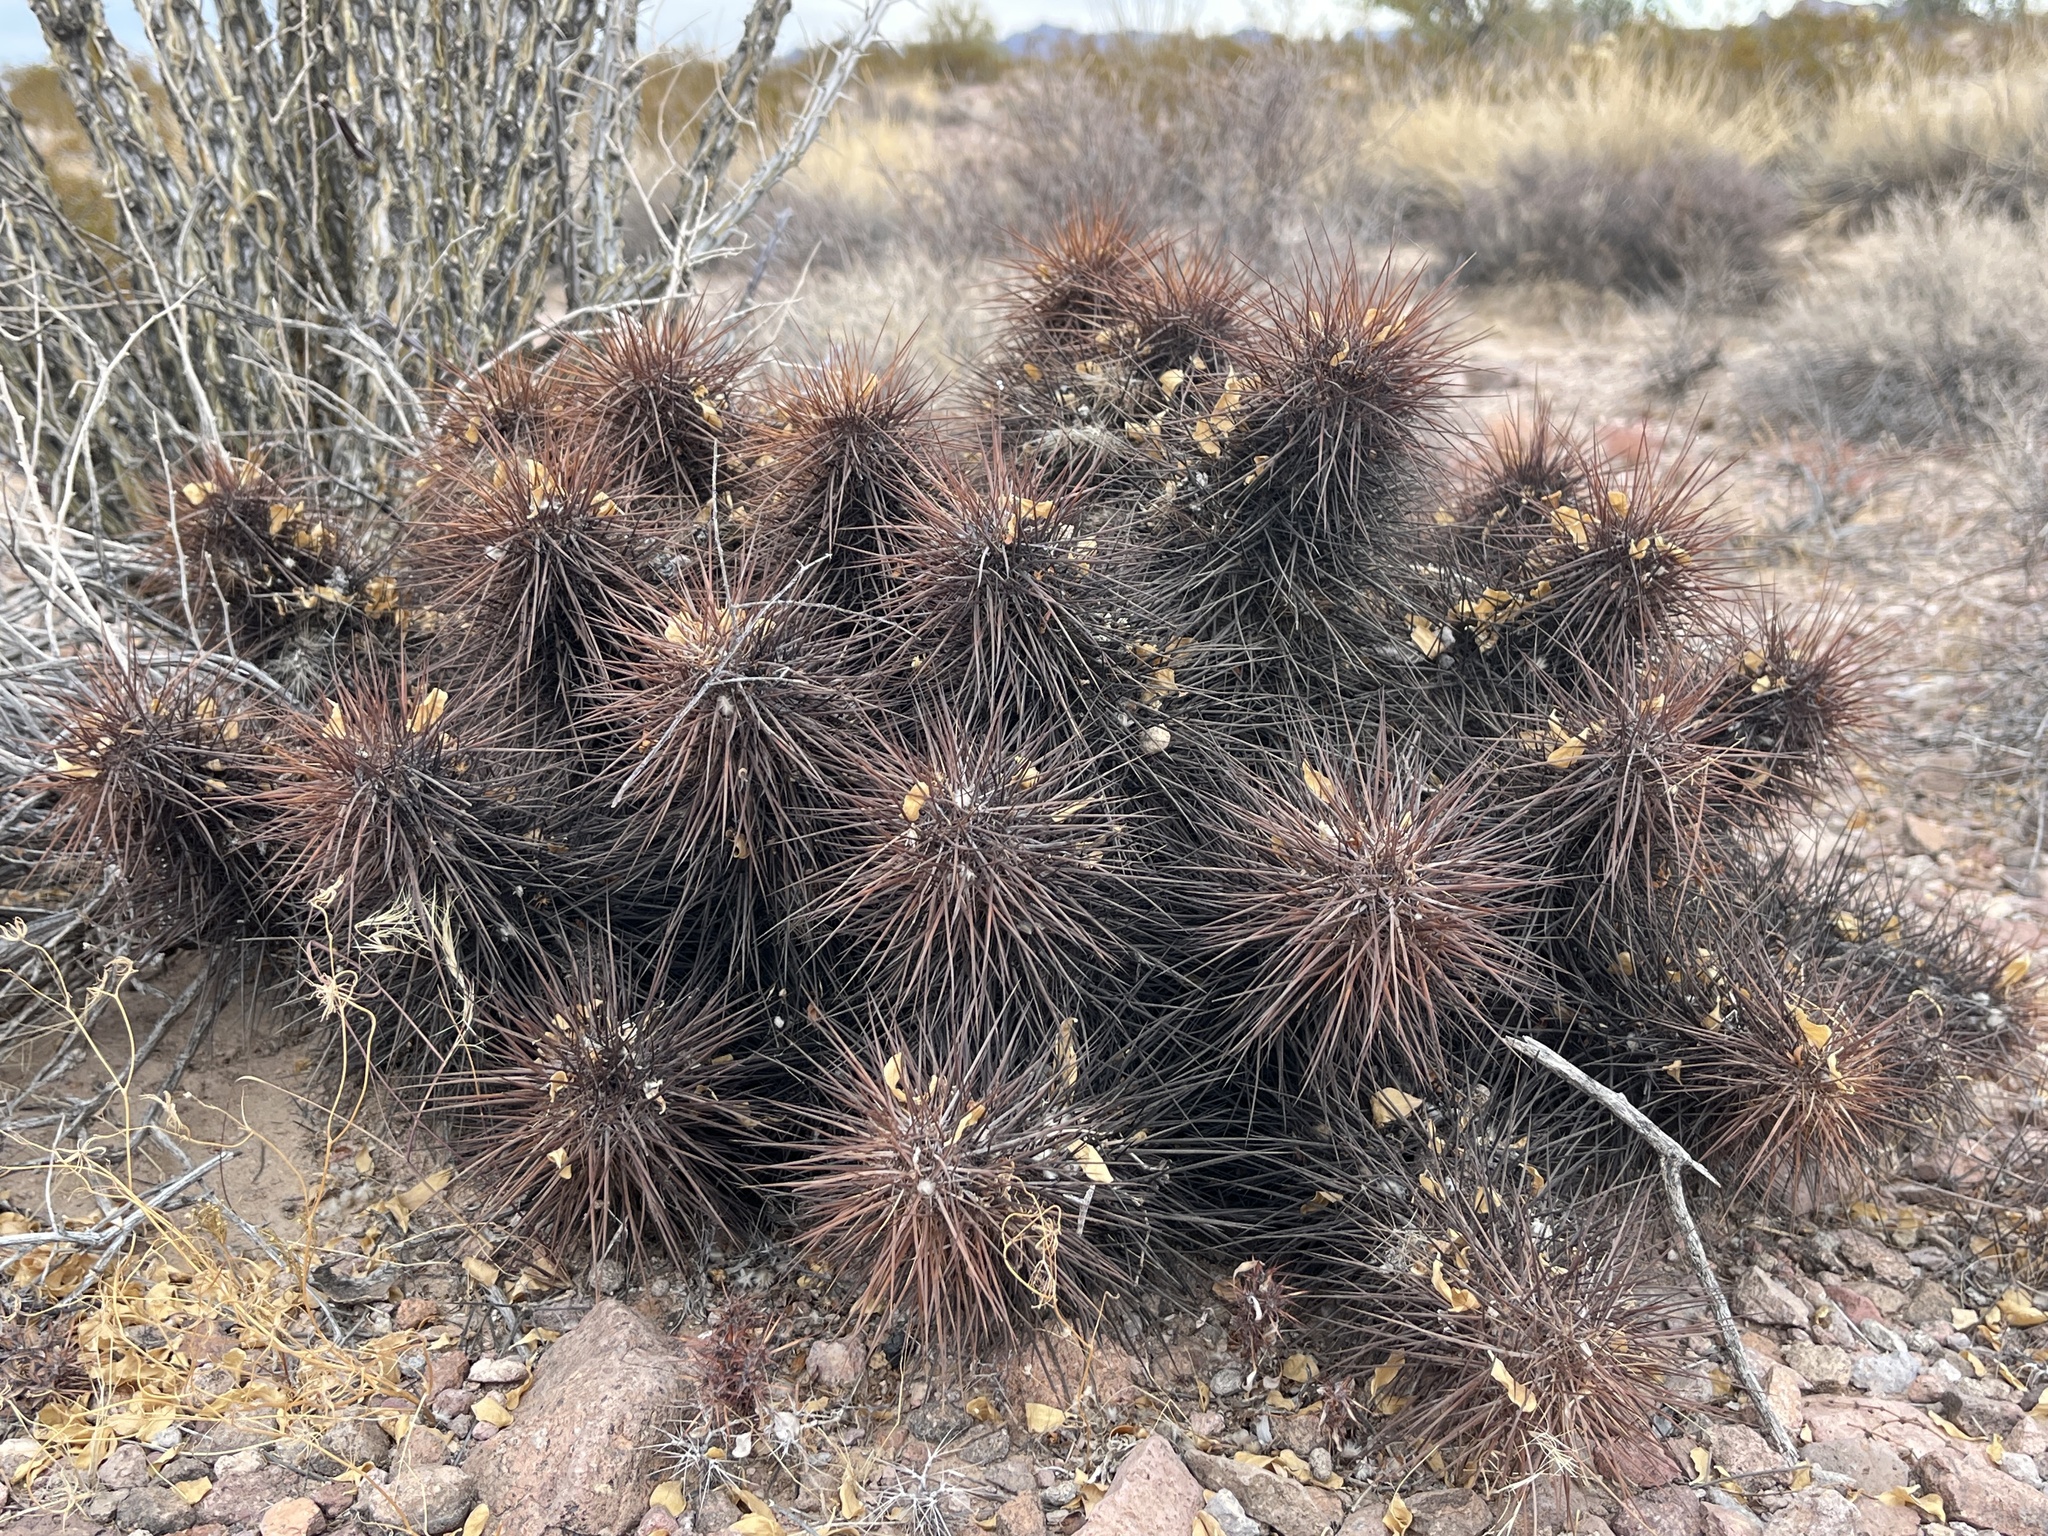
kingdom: Plantae
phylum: Tracheophyta
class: Magnoliopsida
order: Caryophyllales
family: Cactaceae
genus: Echinocereus
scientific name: Echinocereus engelmannii
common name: Engelmann's hedgehog cactus
